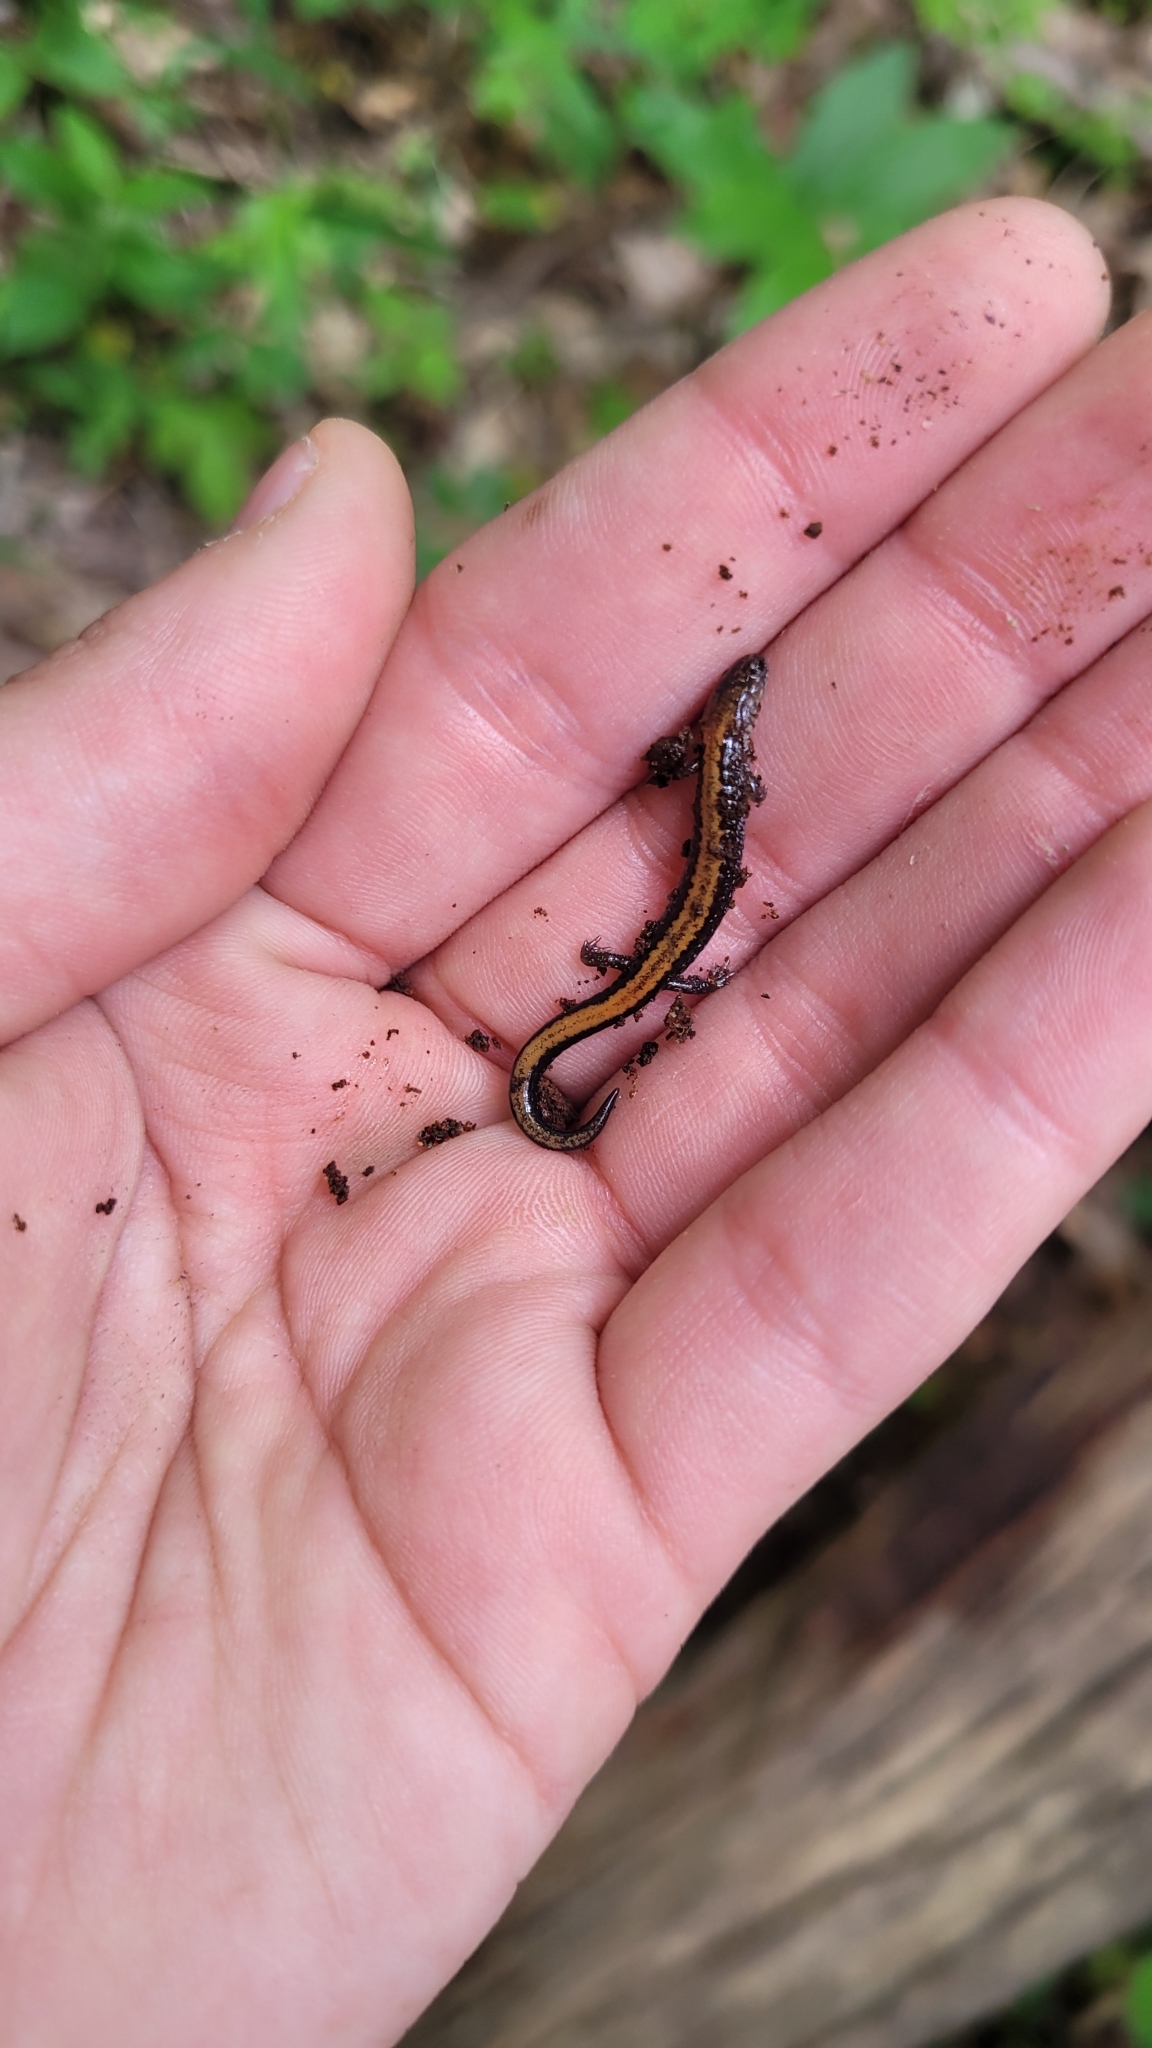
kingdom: Animalia
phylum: Chordata
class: Amphibia
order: Caudata
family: Plethodontidae
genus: Plethodon
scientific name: Plethodon cinereus
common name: Redback salamander
